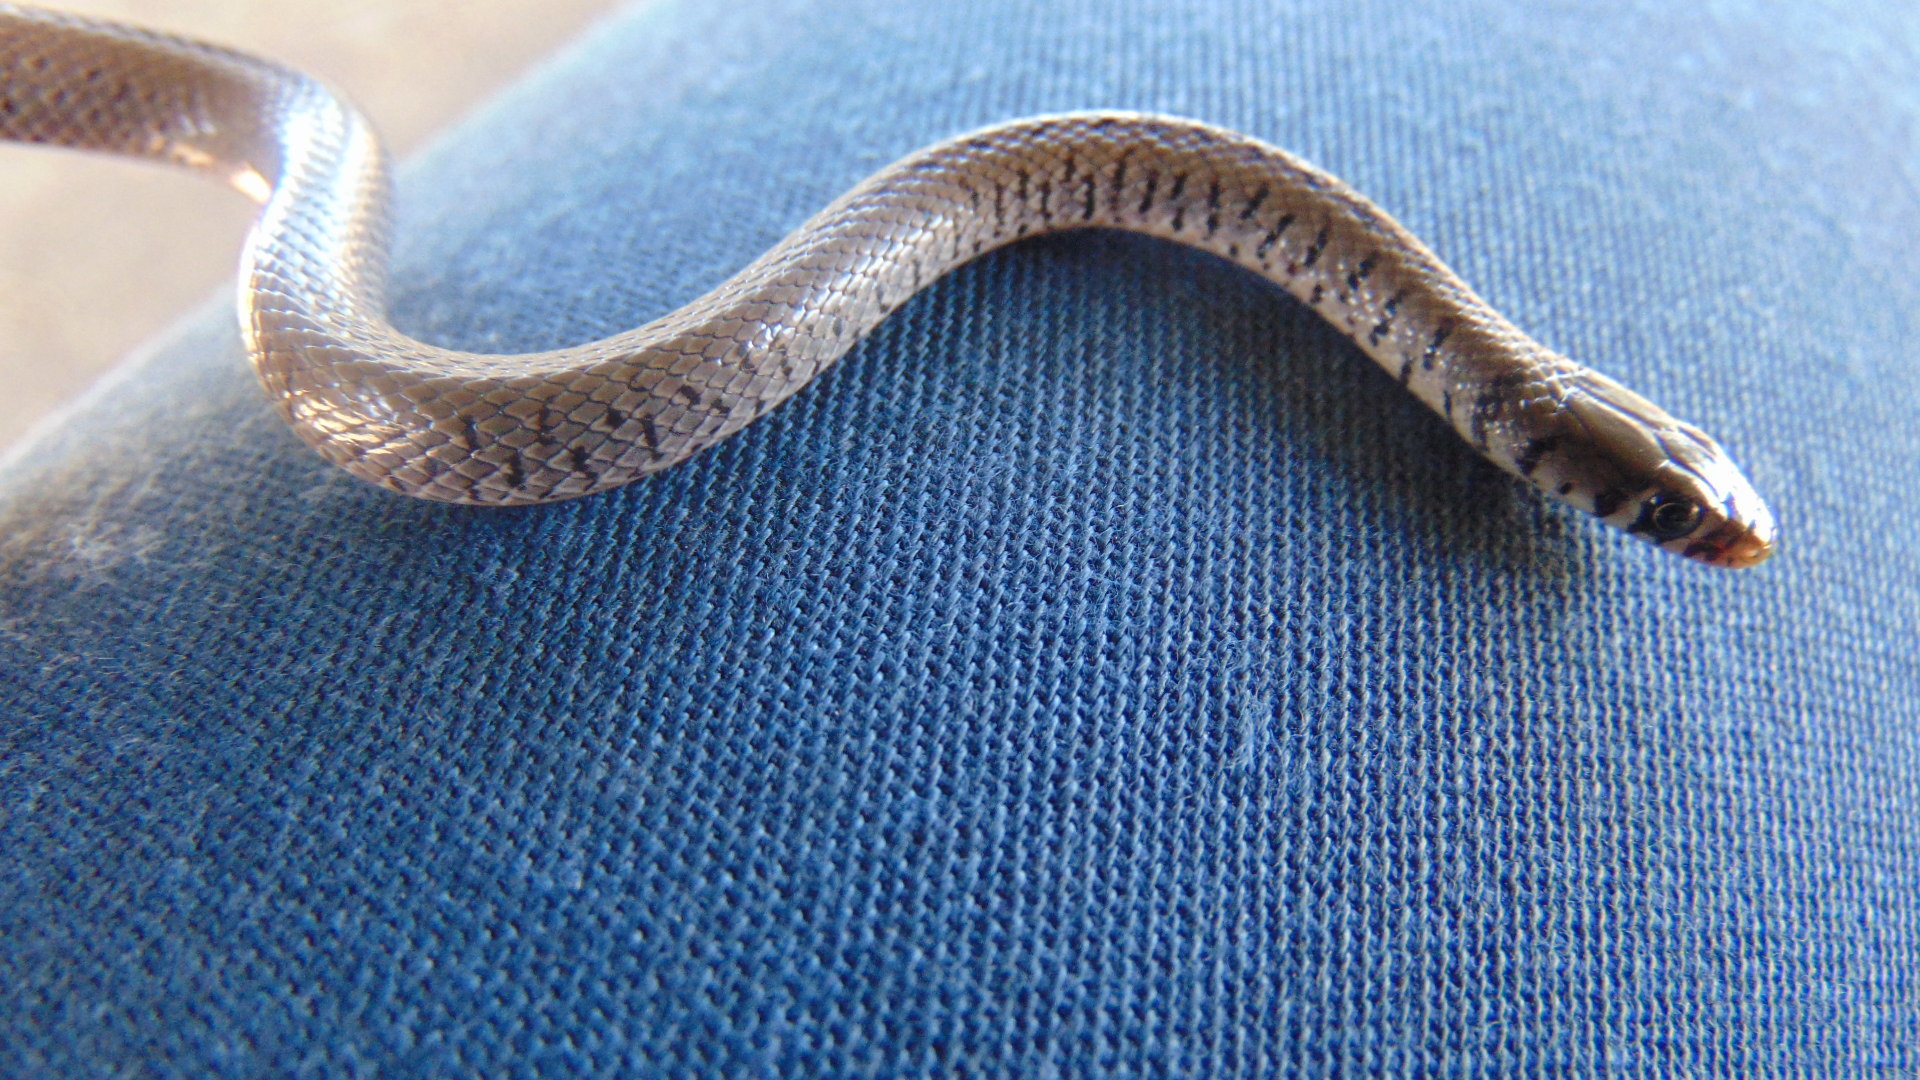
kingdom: Animalia
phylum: Chordata
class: Squamata
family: Colubridae
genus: Meizodon
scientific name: Meizodon semiornatus
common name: Semiornate smooth snake
